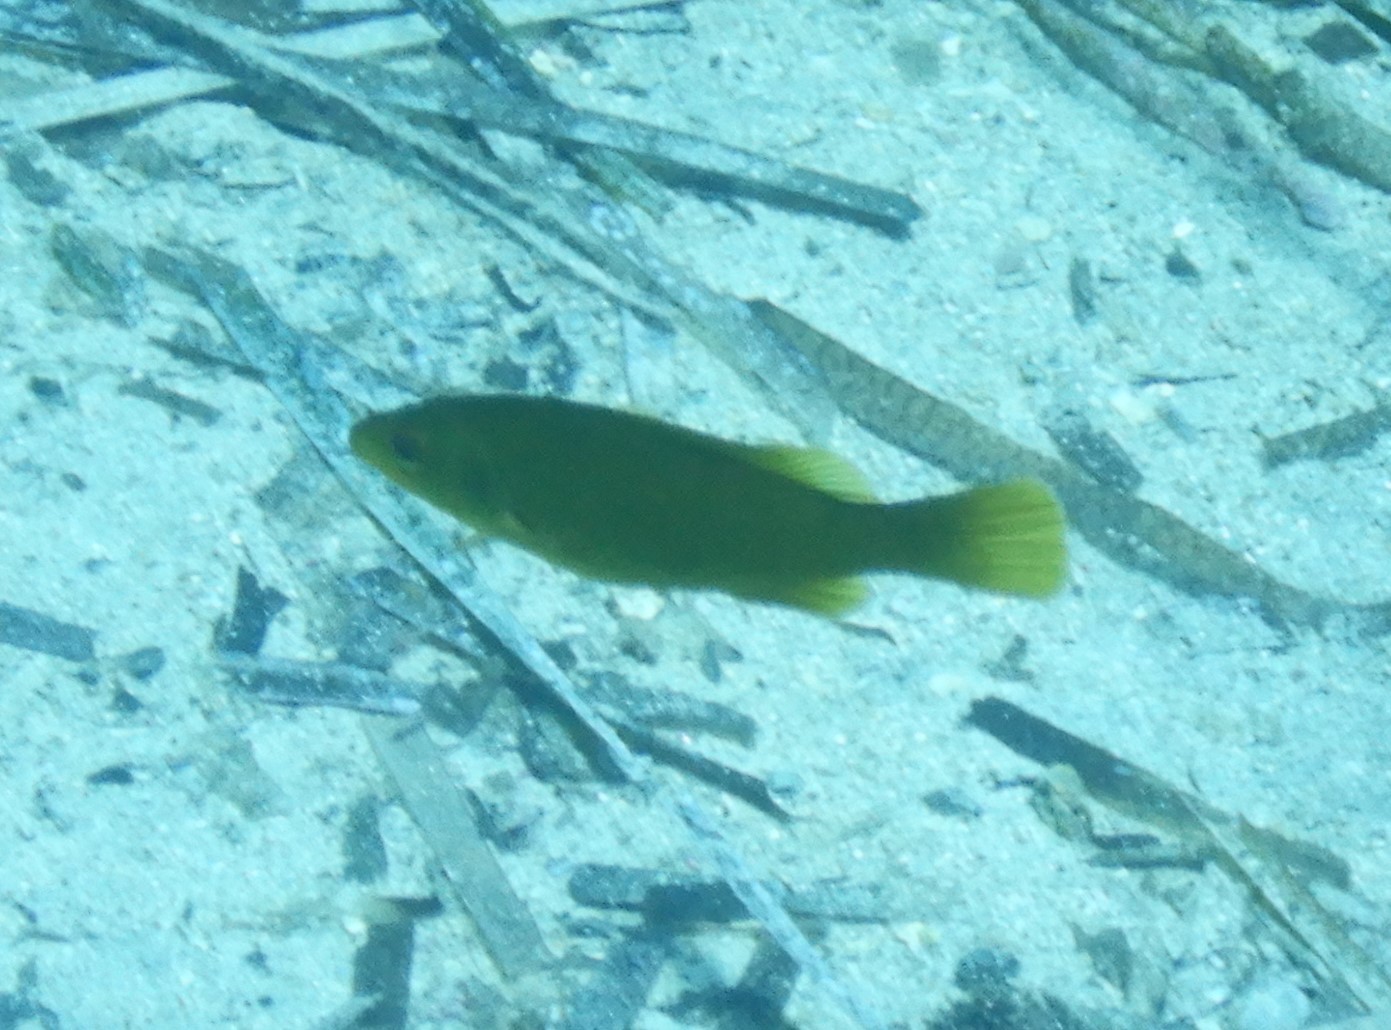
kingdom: Animalia
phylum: Chordata
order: Perciformes
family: Labridae
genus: Labrus
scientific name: Labrus
